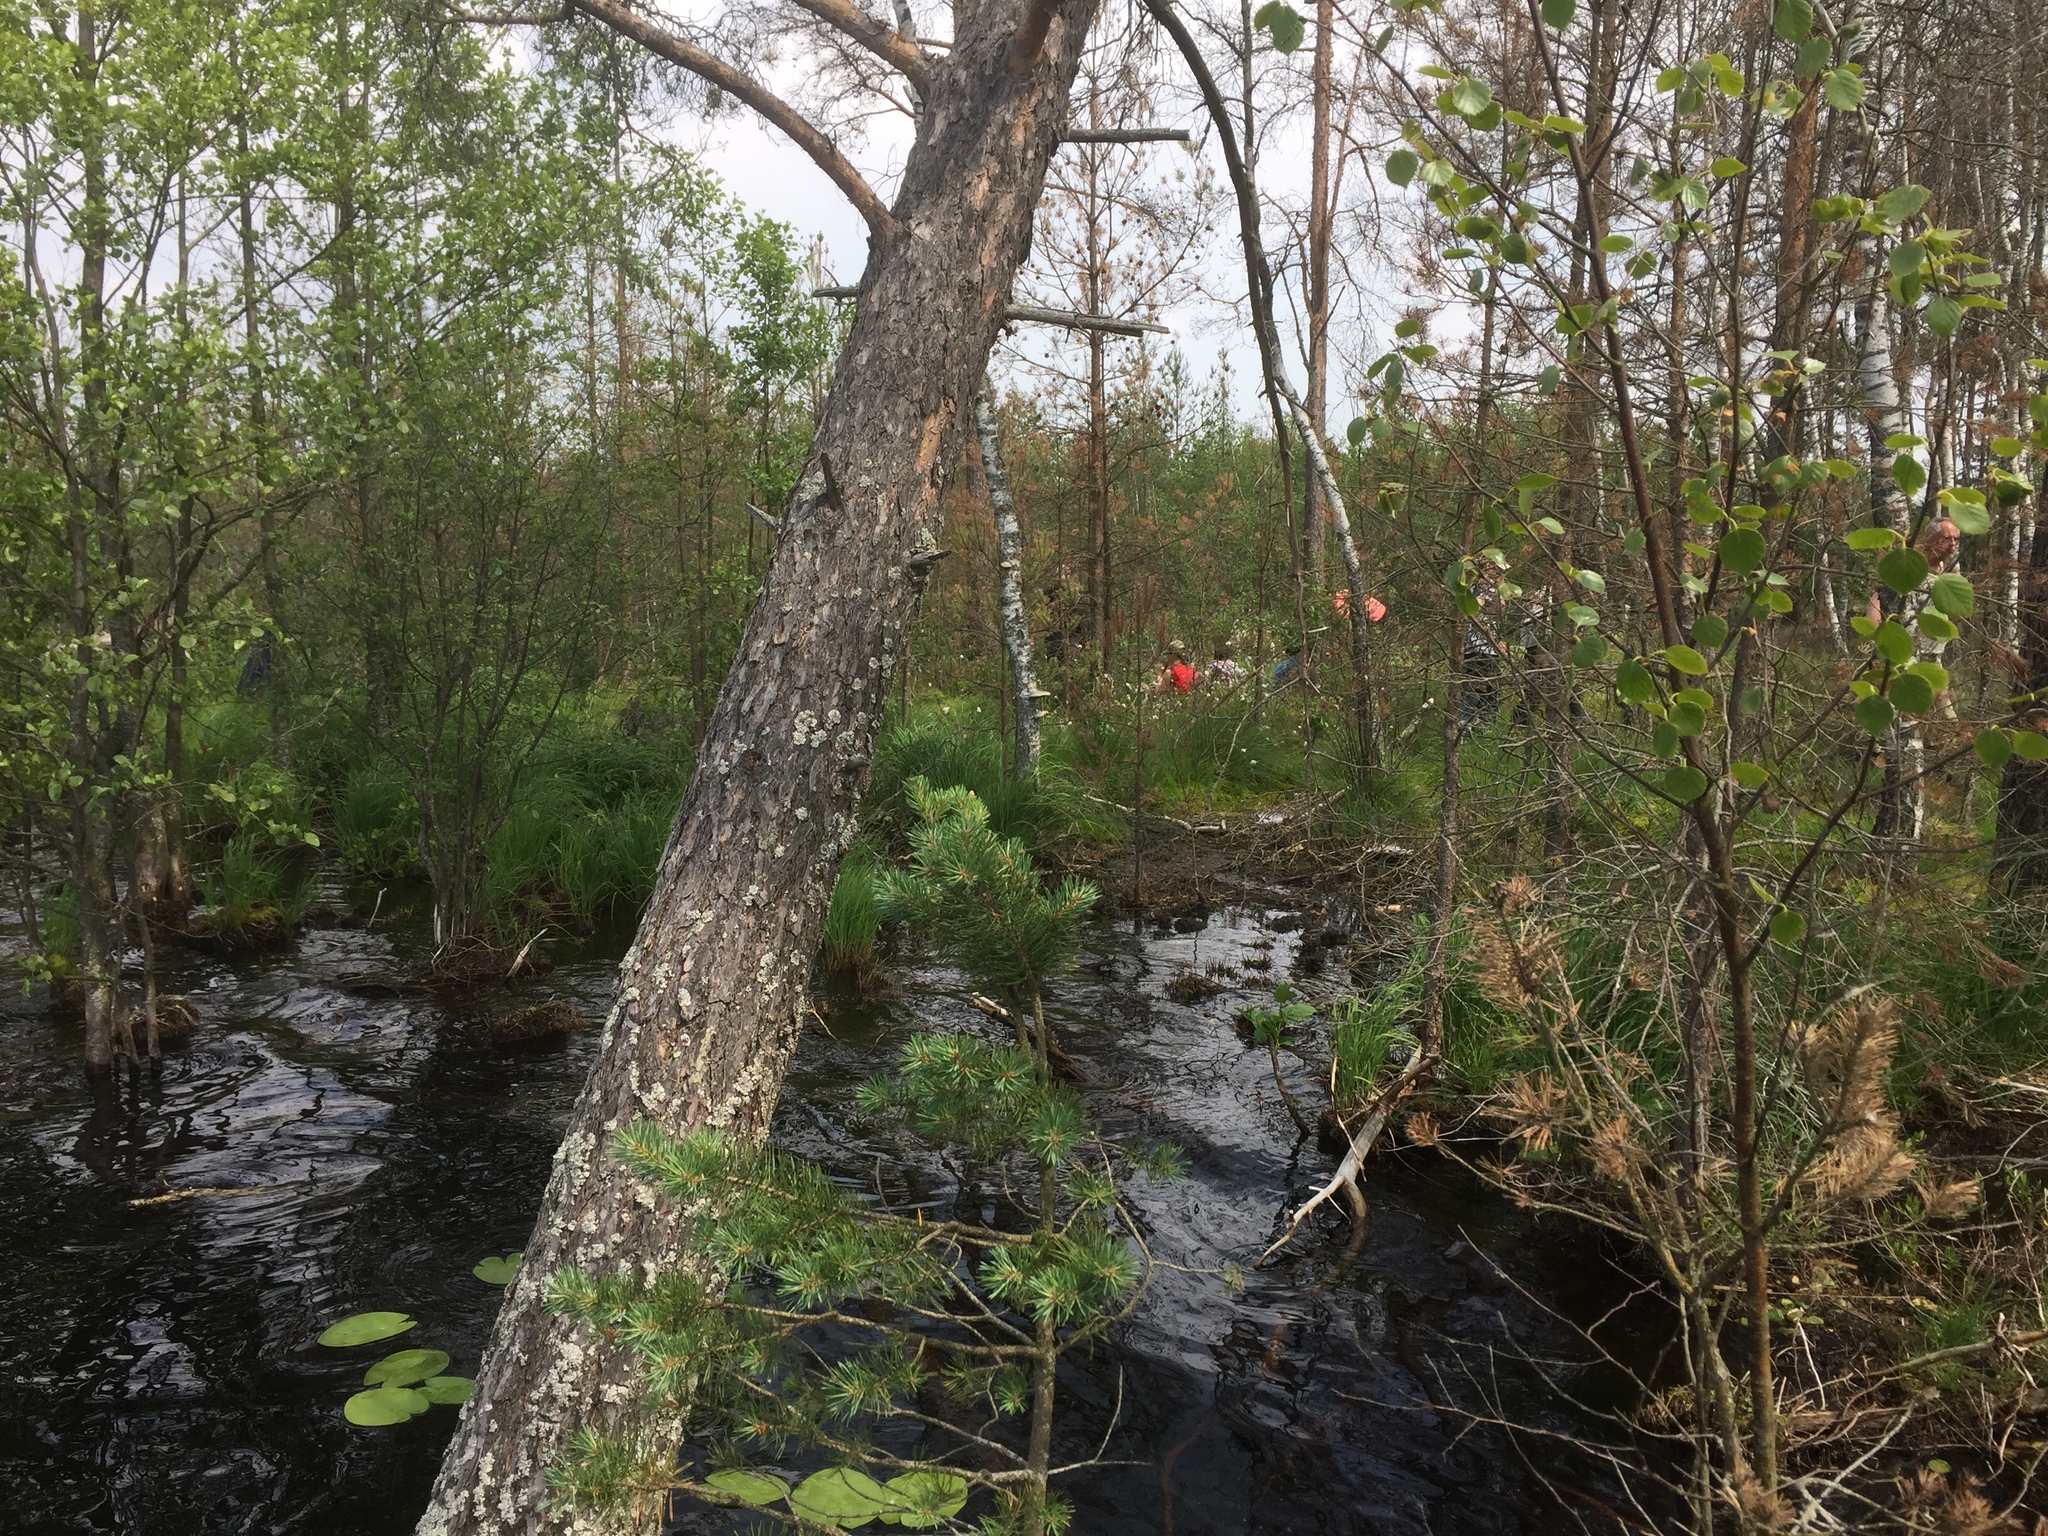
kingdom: Plantae
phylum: Tracheophyta
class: Pinopsida
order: Pinales
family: Pinaceae
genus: Pinus
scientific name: Pinus sylvestris
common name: Scots pine
